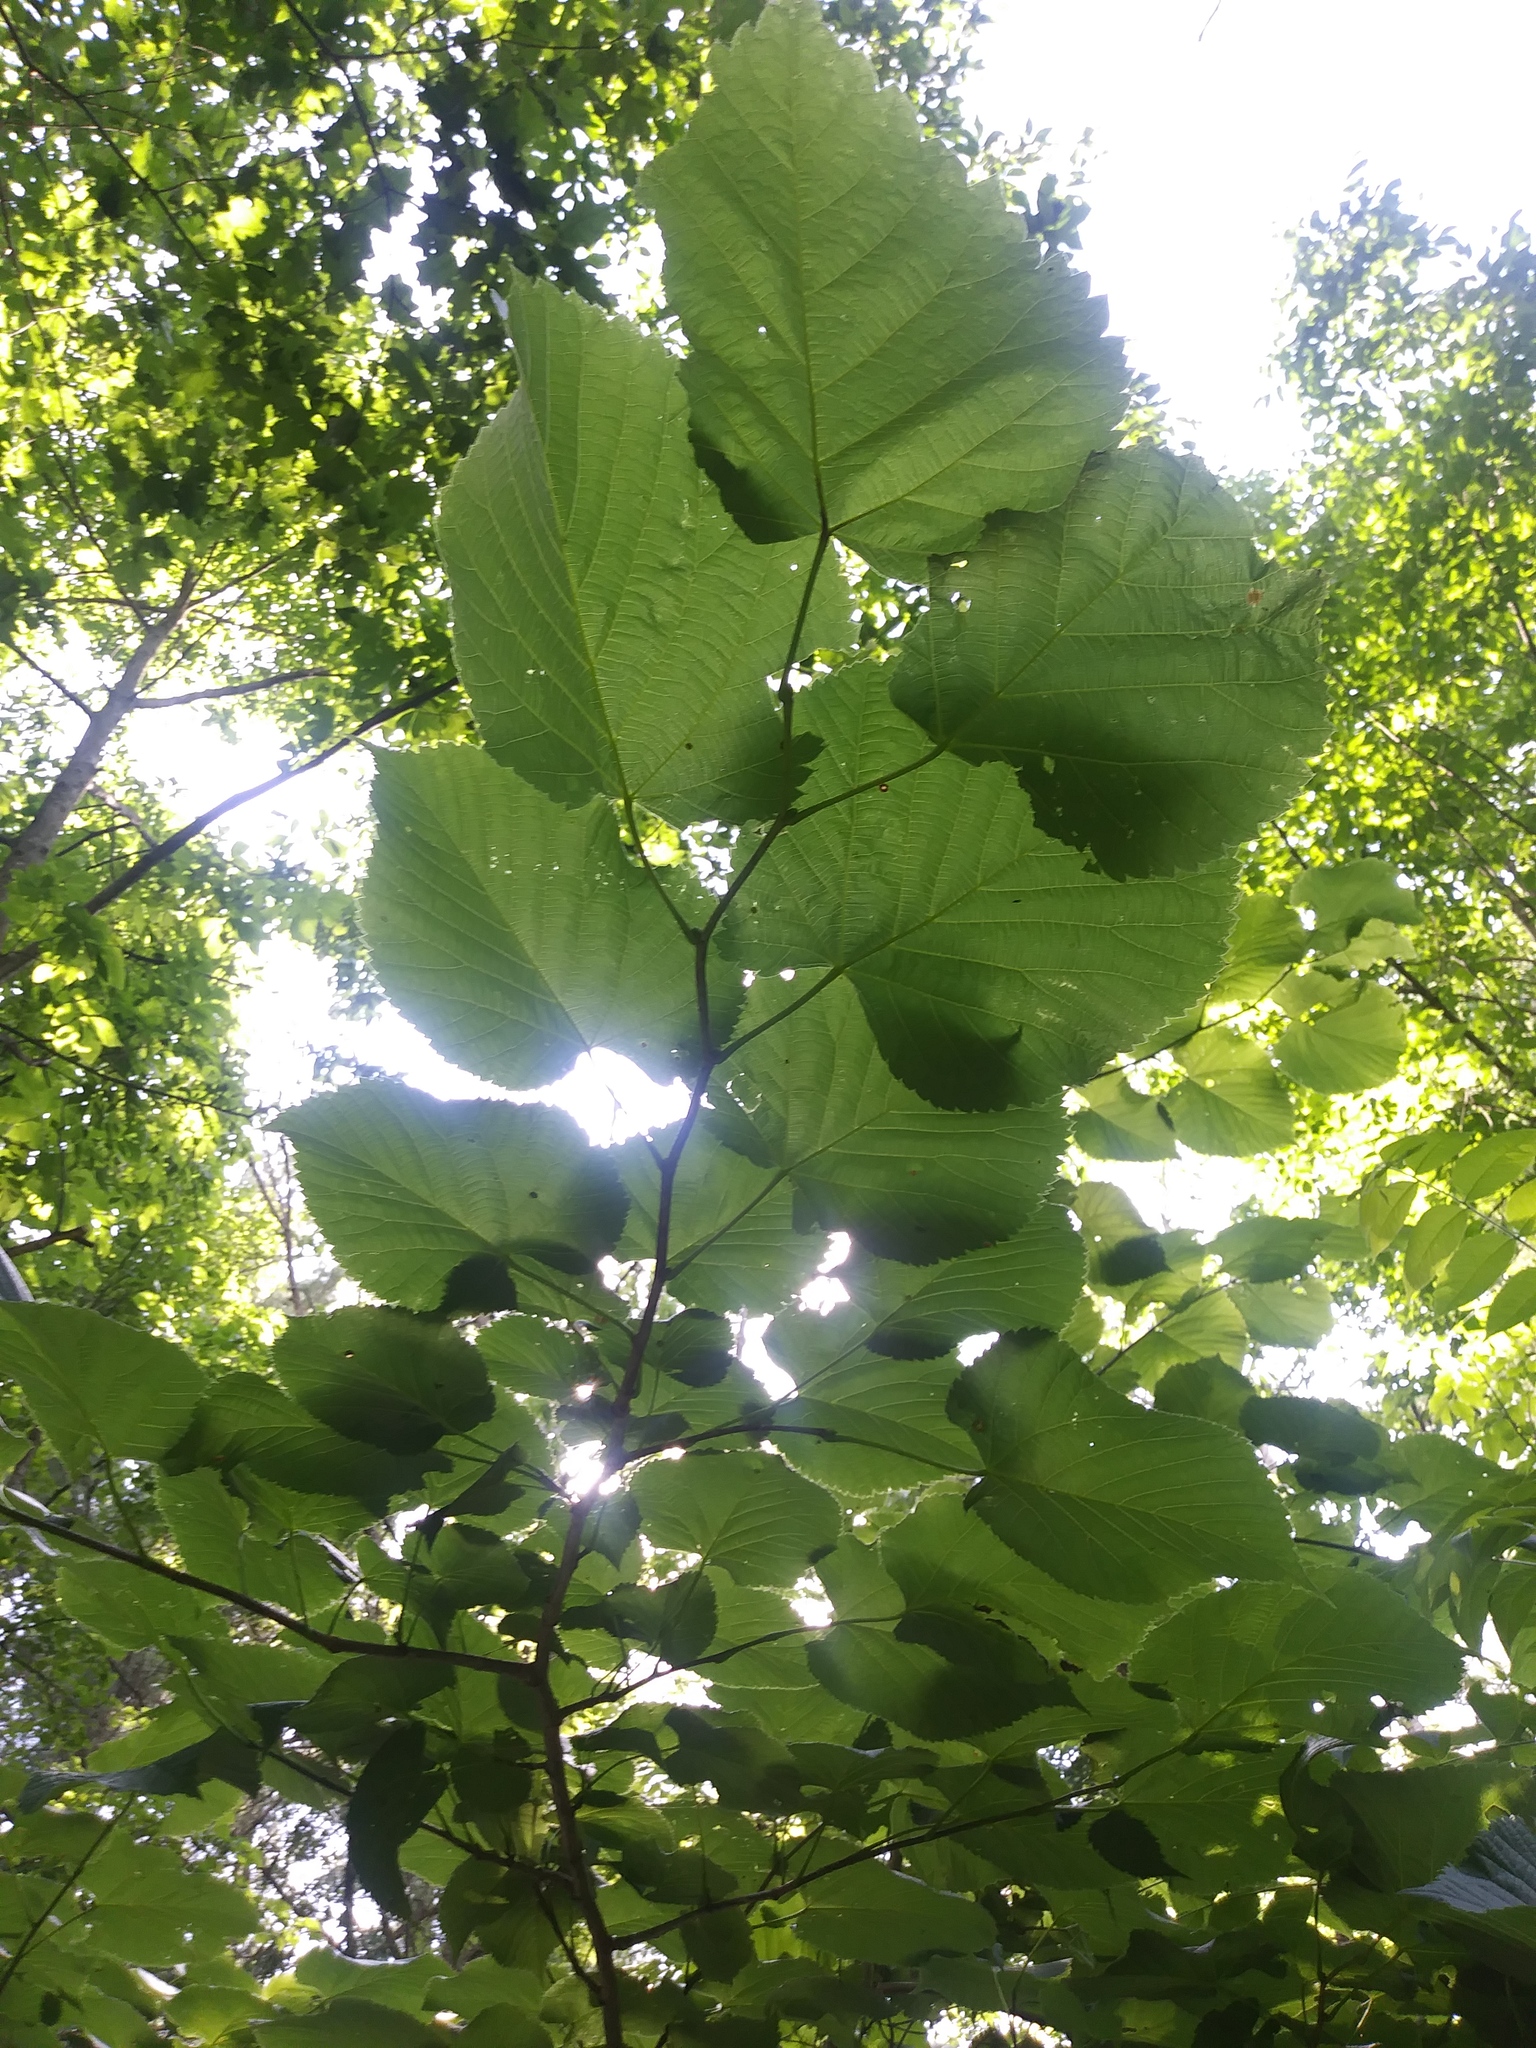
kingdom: Plantae
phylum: Tracheophyta
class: Magnoliopsida
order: Malvales
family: Malvaceae
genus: Tilia
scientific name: Tilia americana
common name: Basswood
